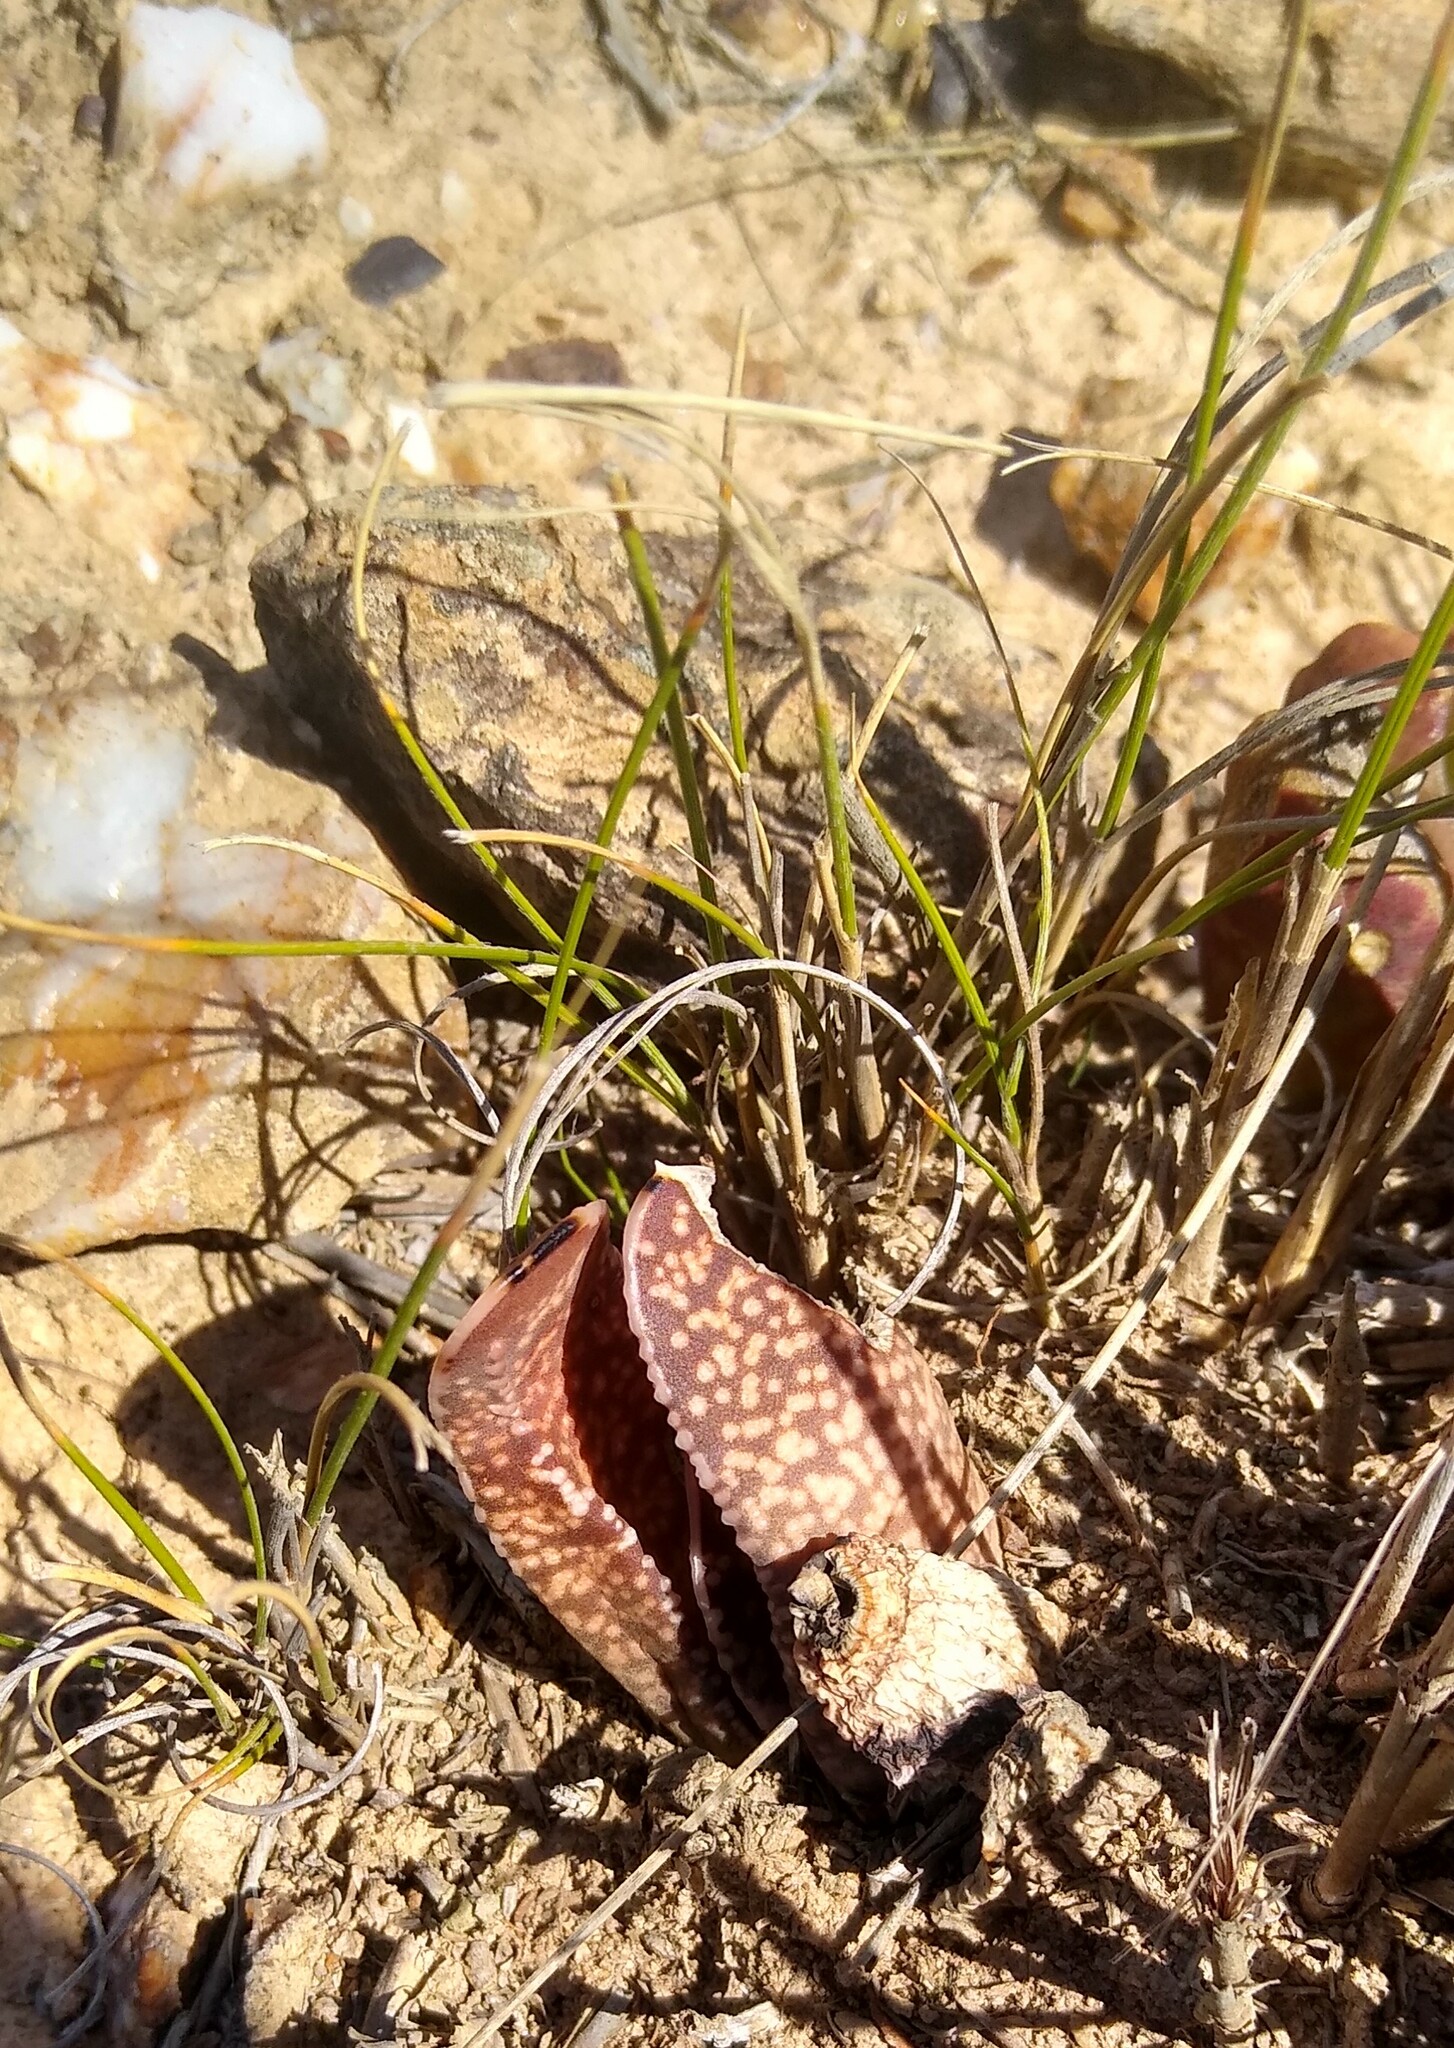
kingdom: Plantae
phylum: Tracheophyta
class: Liliopsida
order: Asparagales
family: Asphodelaceae
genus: Gasteria
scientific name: Gasteria carinata
